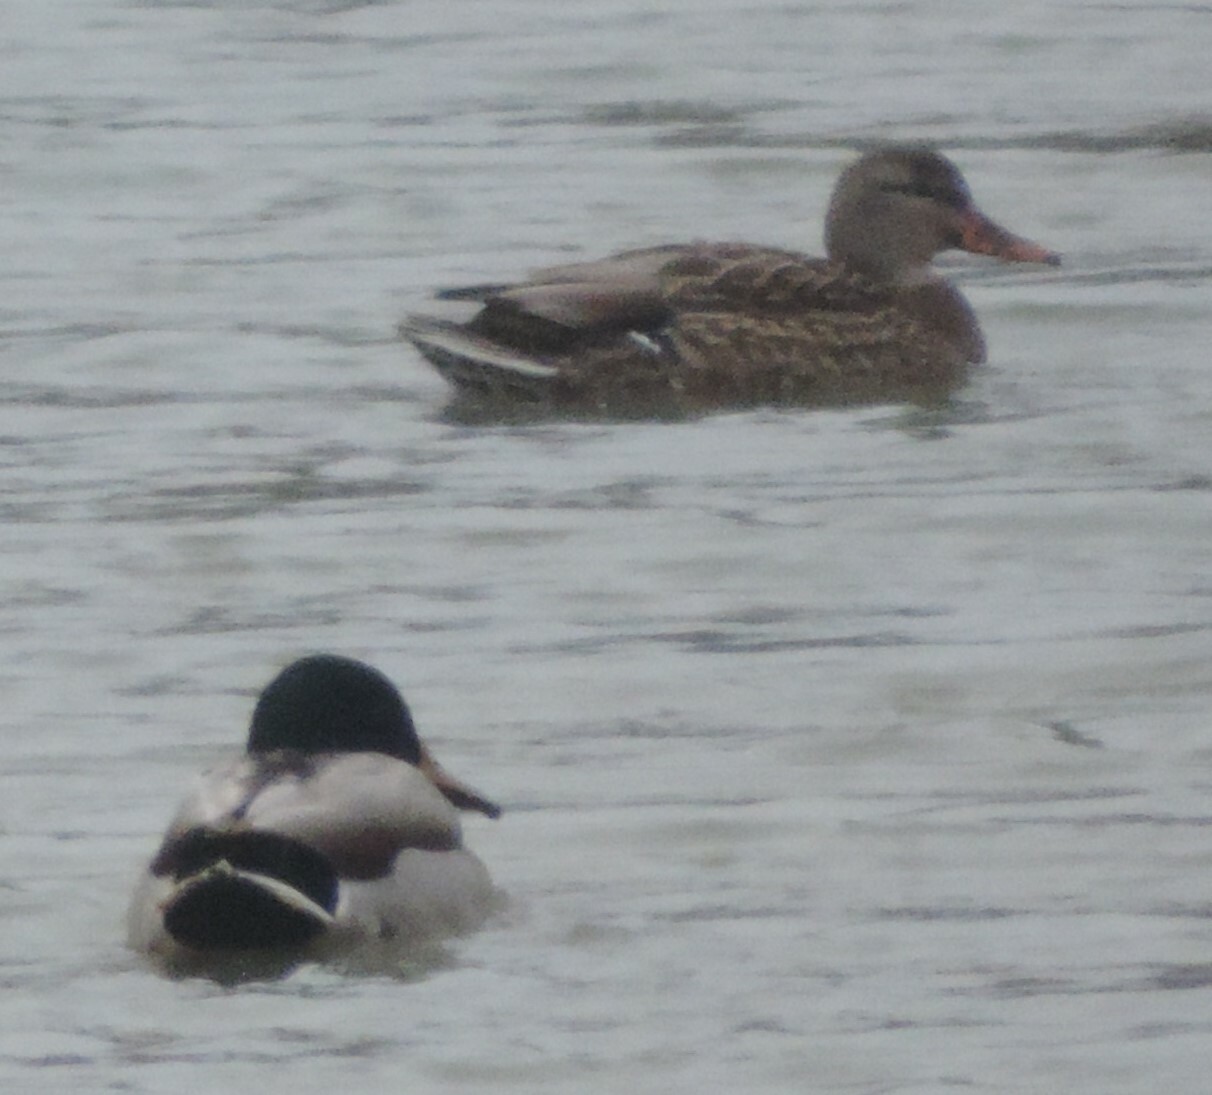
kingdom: Animalia
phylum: Chordata
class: Aves
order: Anseriformes
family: Anatidae
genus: Anas
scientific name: Anas platyrhynchos
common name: Mallard
